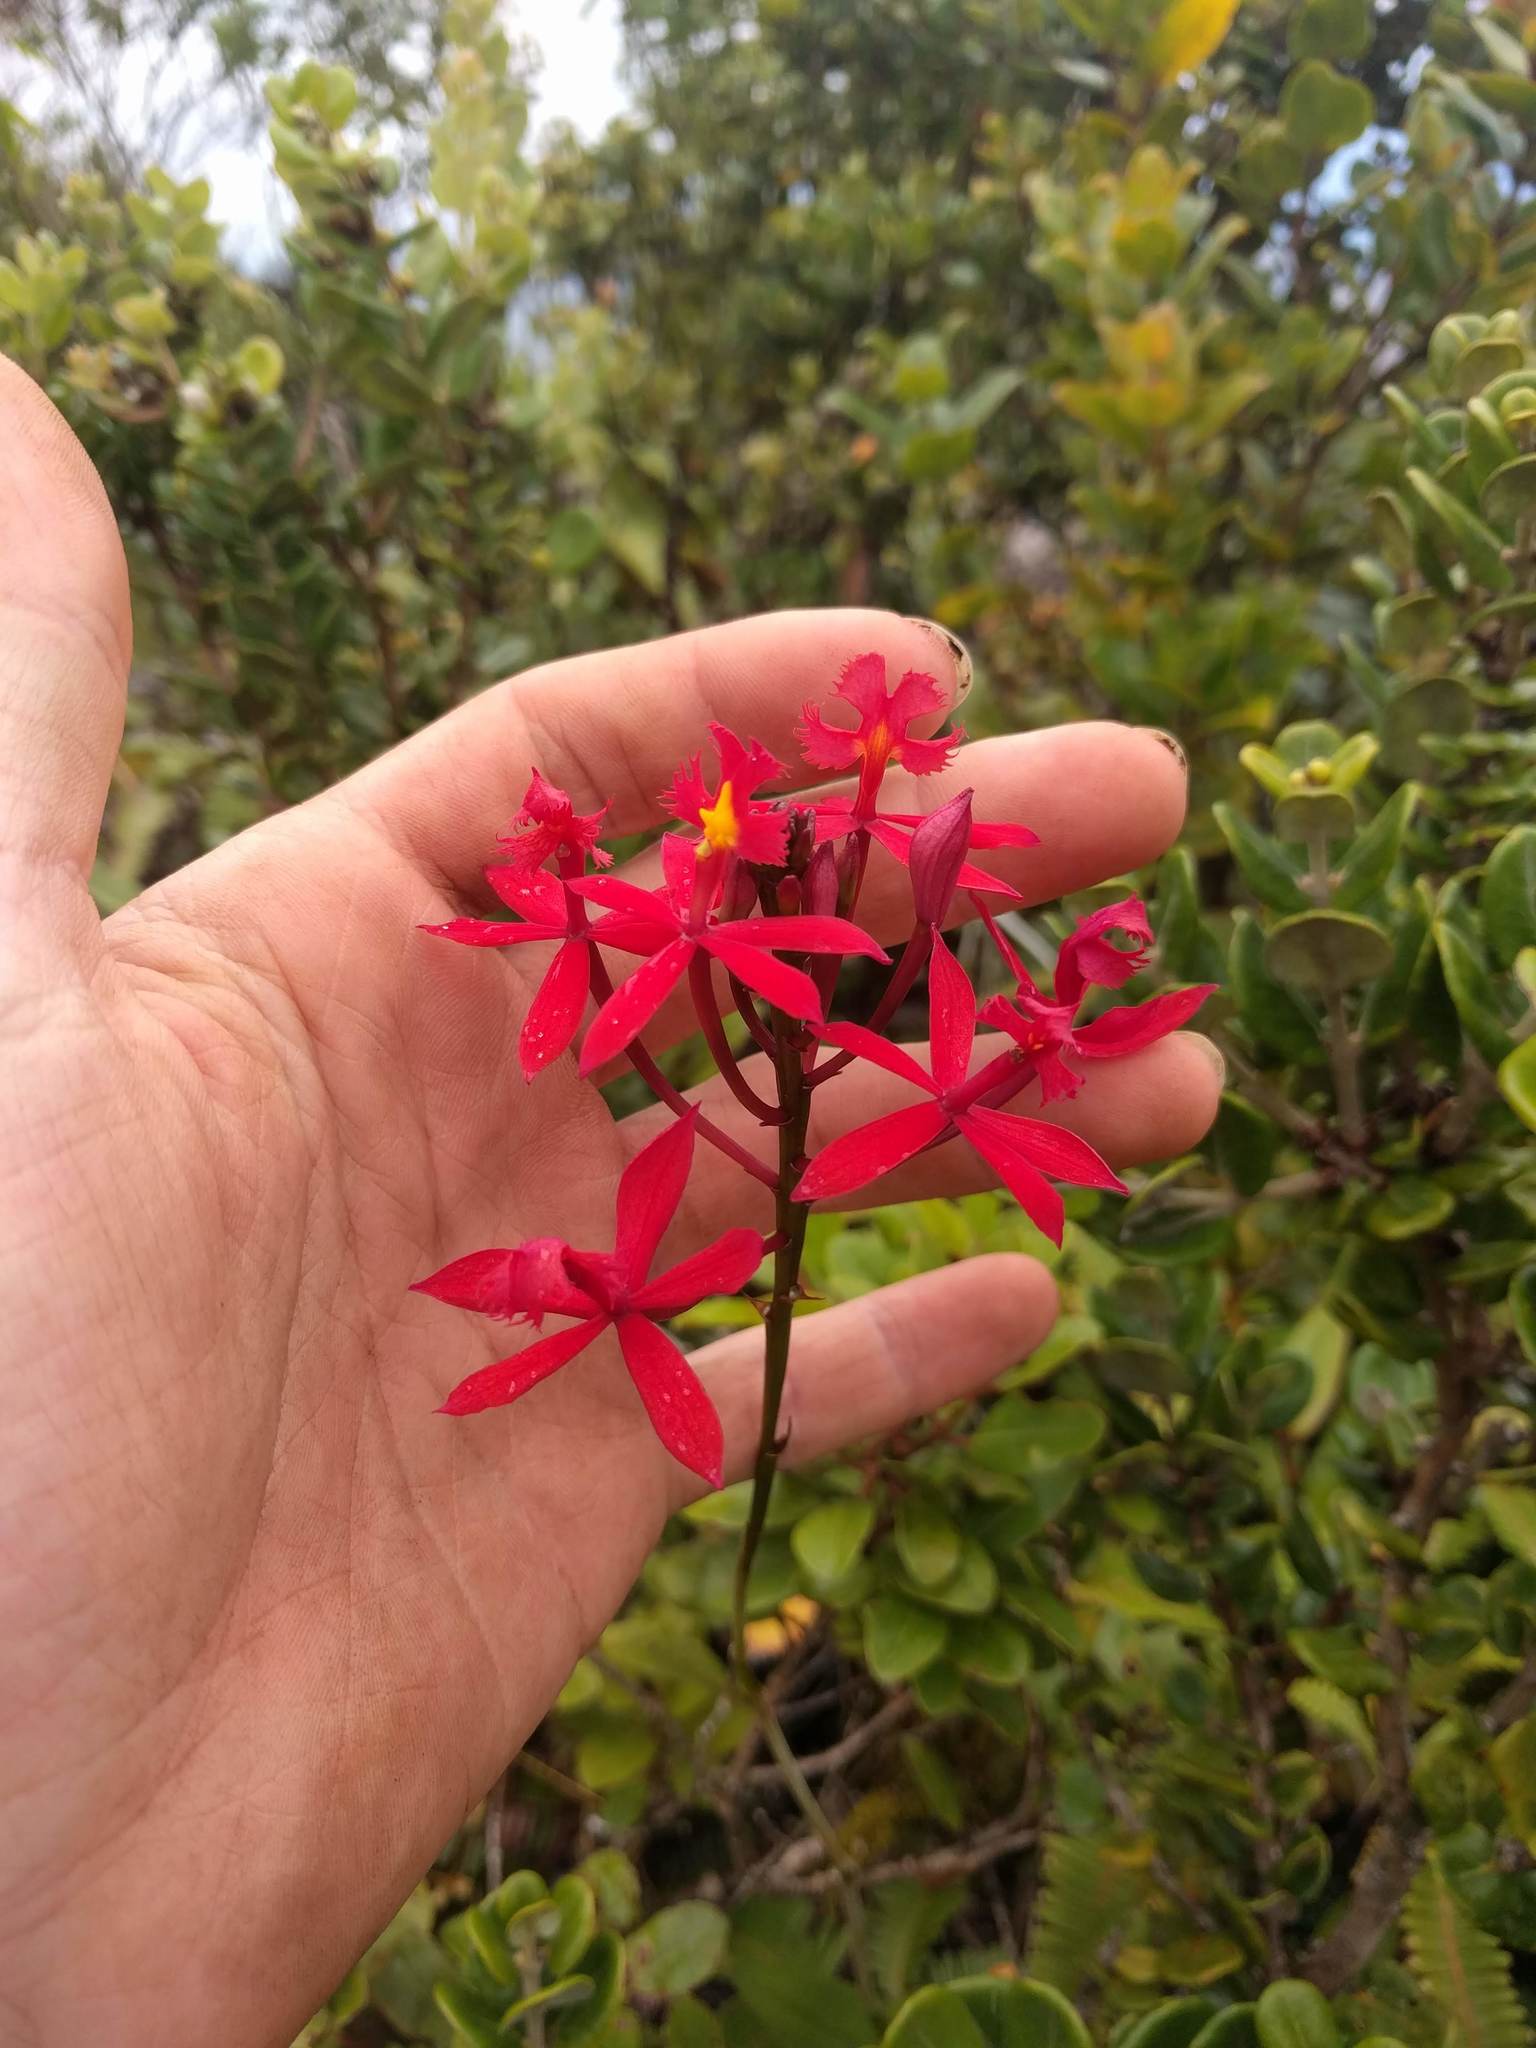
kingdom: Plantae
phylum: Tracheophyta
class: Liliopsida
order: Asparagales
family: Orchidaceae
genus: Epidendrum
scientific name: Epidendrum obrienianum
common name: O'brien's star orchid
